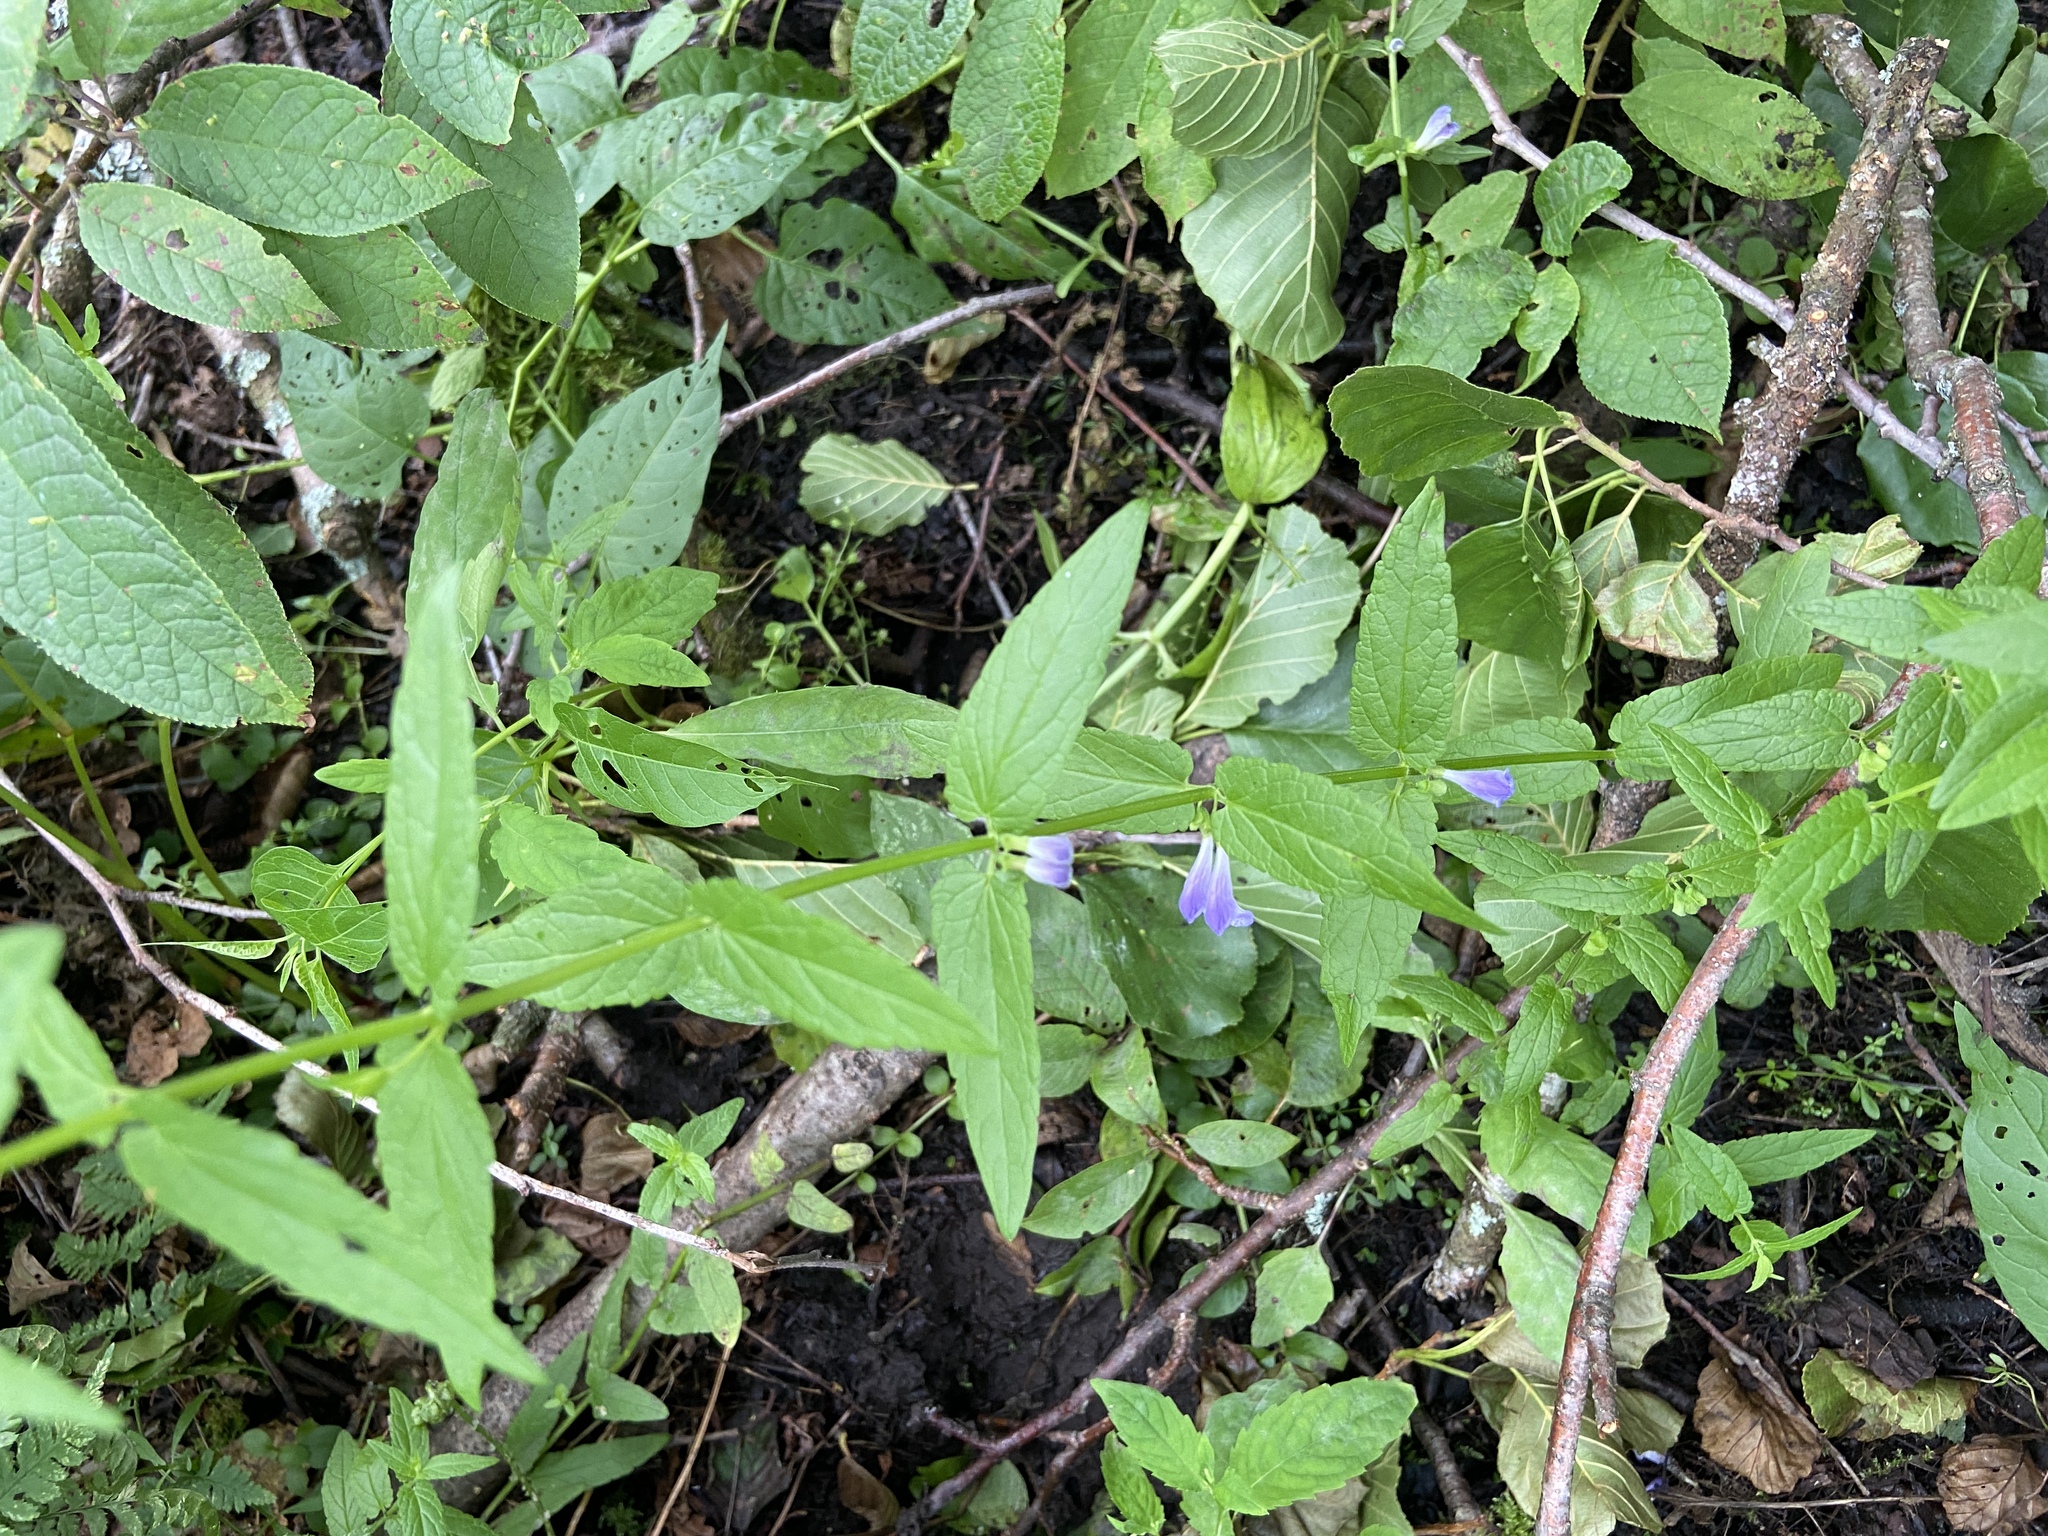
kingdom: Plantae
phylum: Tracheophyta
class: Magnoliopsida
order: Lamiales
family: Lamiaceae
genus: Scutellaria
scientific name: Scutellaria galericulata
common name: Skullcap
